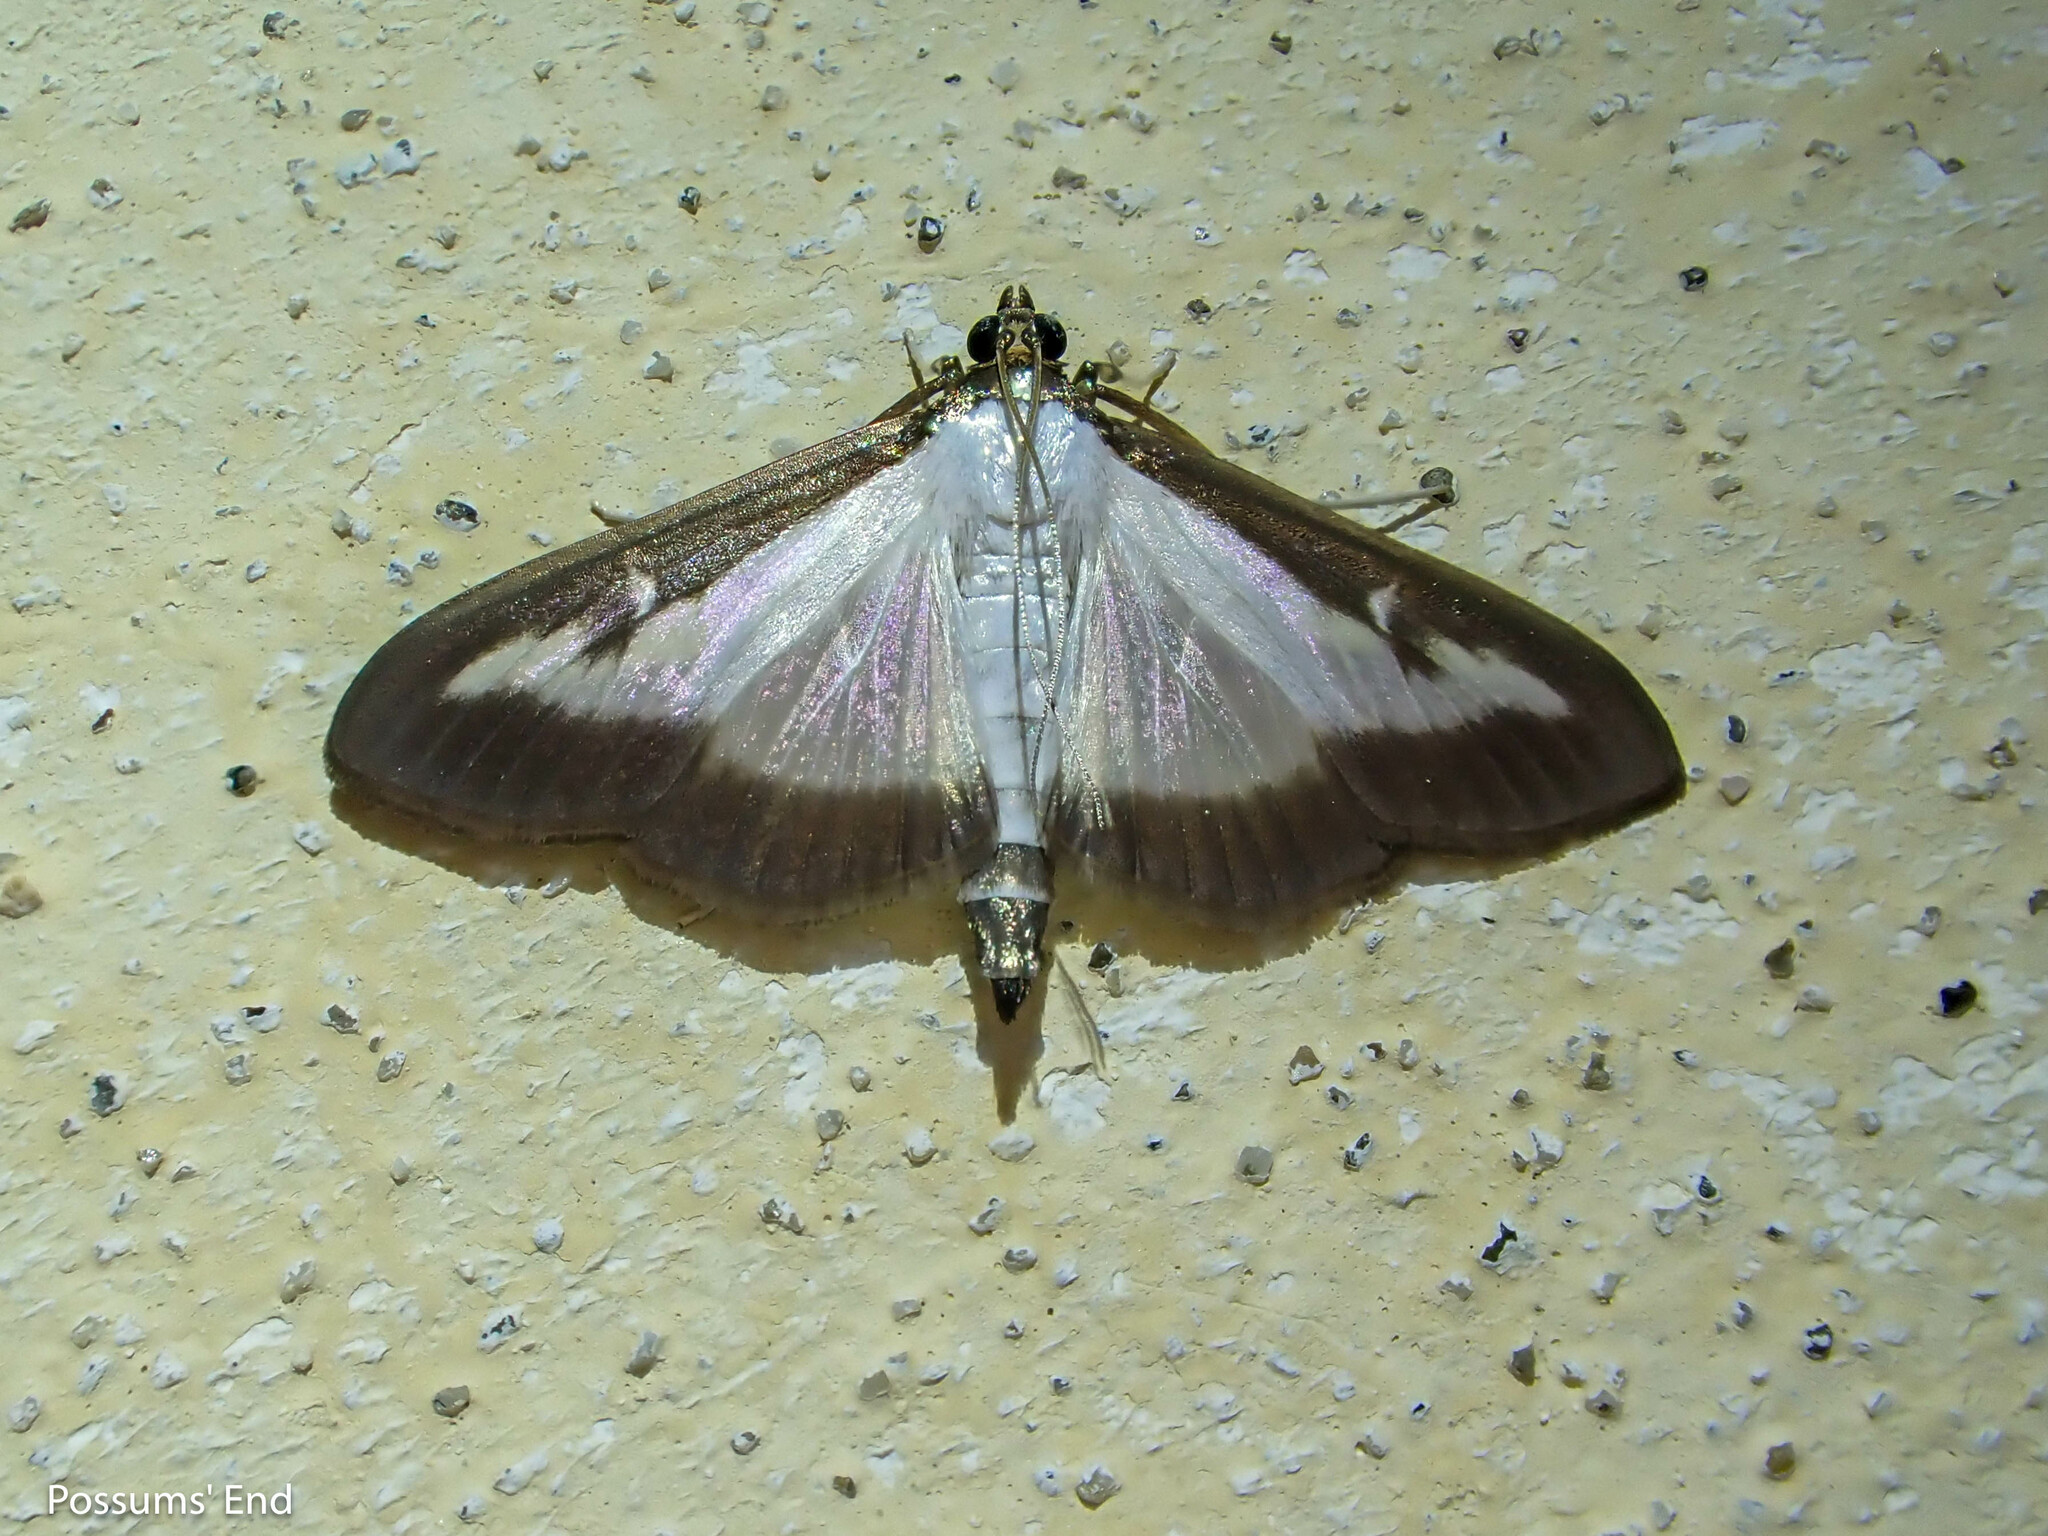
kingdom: Animalia
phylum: Arthropoda
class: Insecta
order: Lepidoptera
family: Crambidae
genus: Cydalima
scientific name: Cydalima perspectalis
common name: Box tree moth
